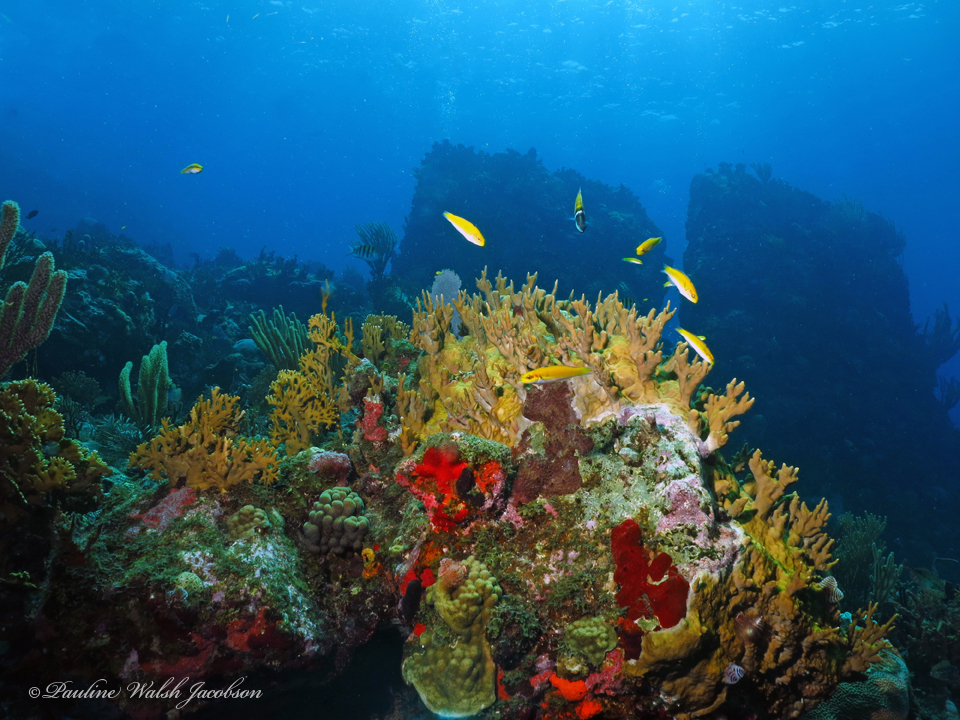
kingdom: Animalia
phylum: Chordata
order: Perciformes
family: Labridae
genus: Thalassoma
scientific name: Thalassoma bifasciatum
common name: Bluehead wrasse
